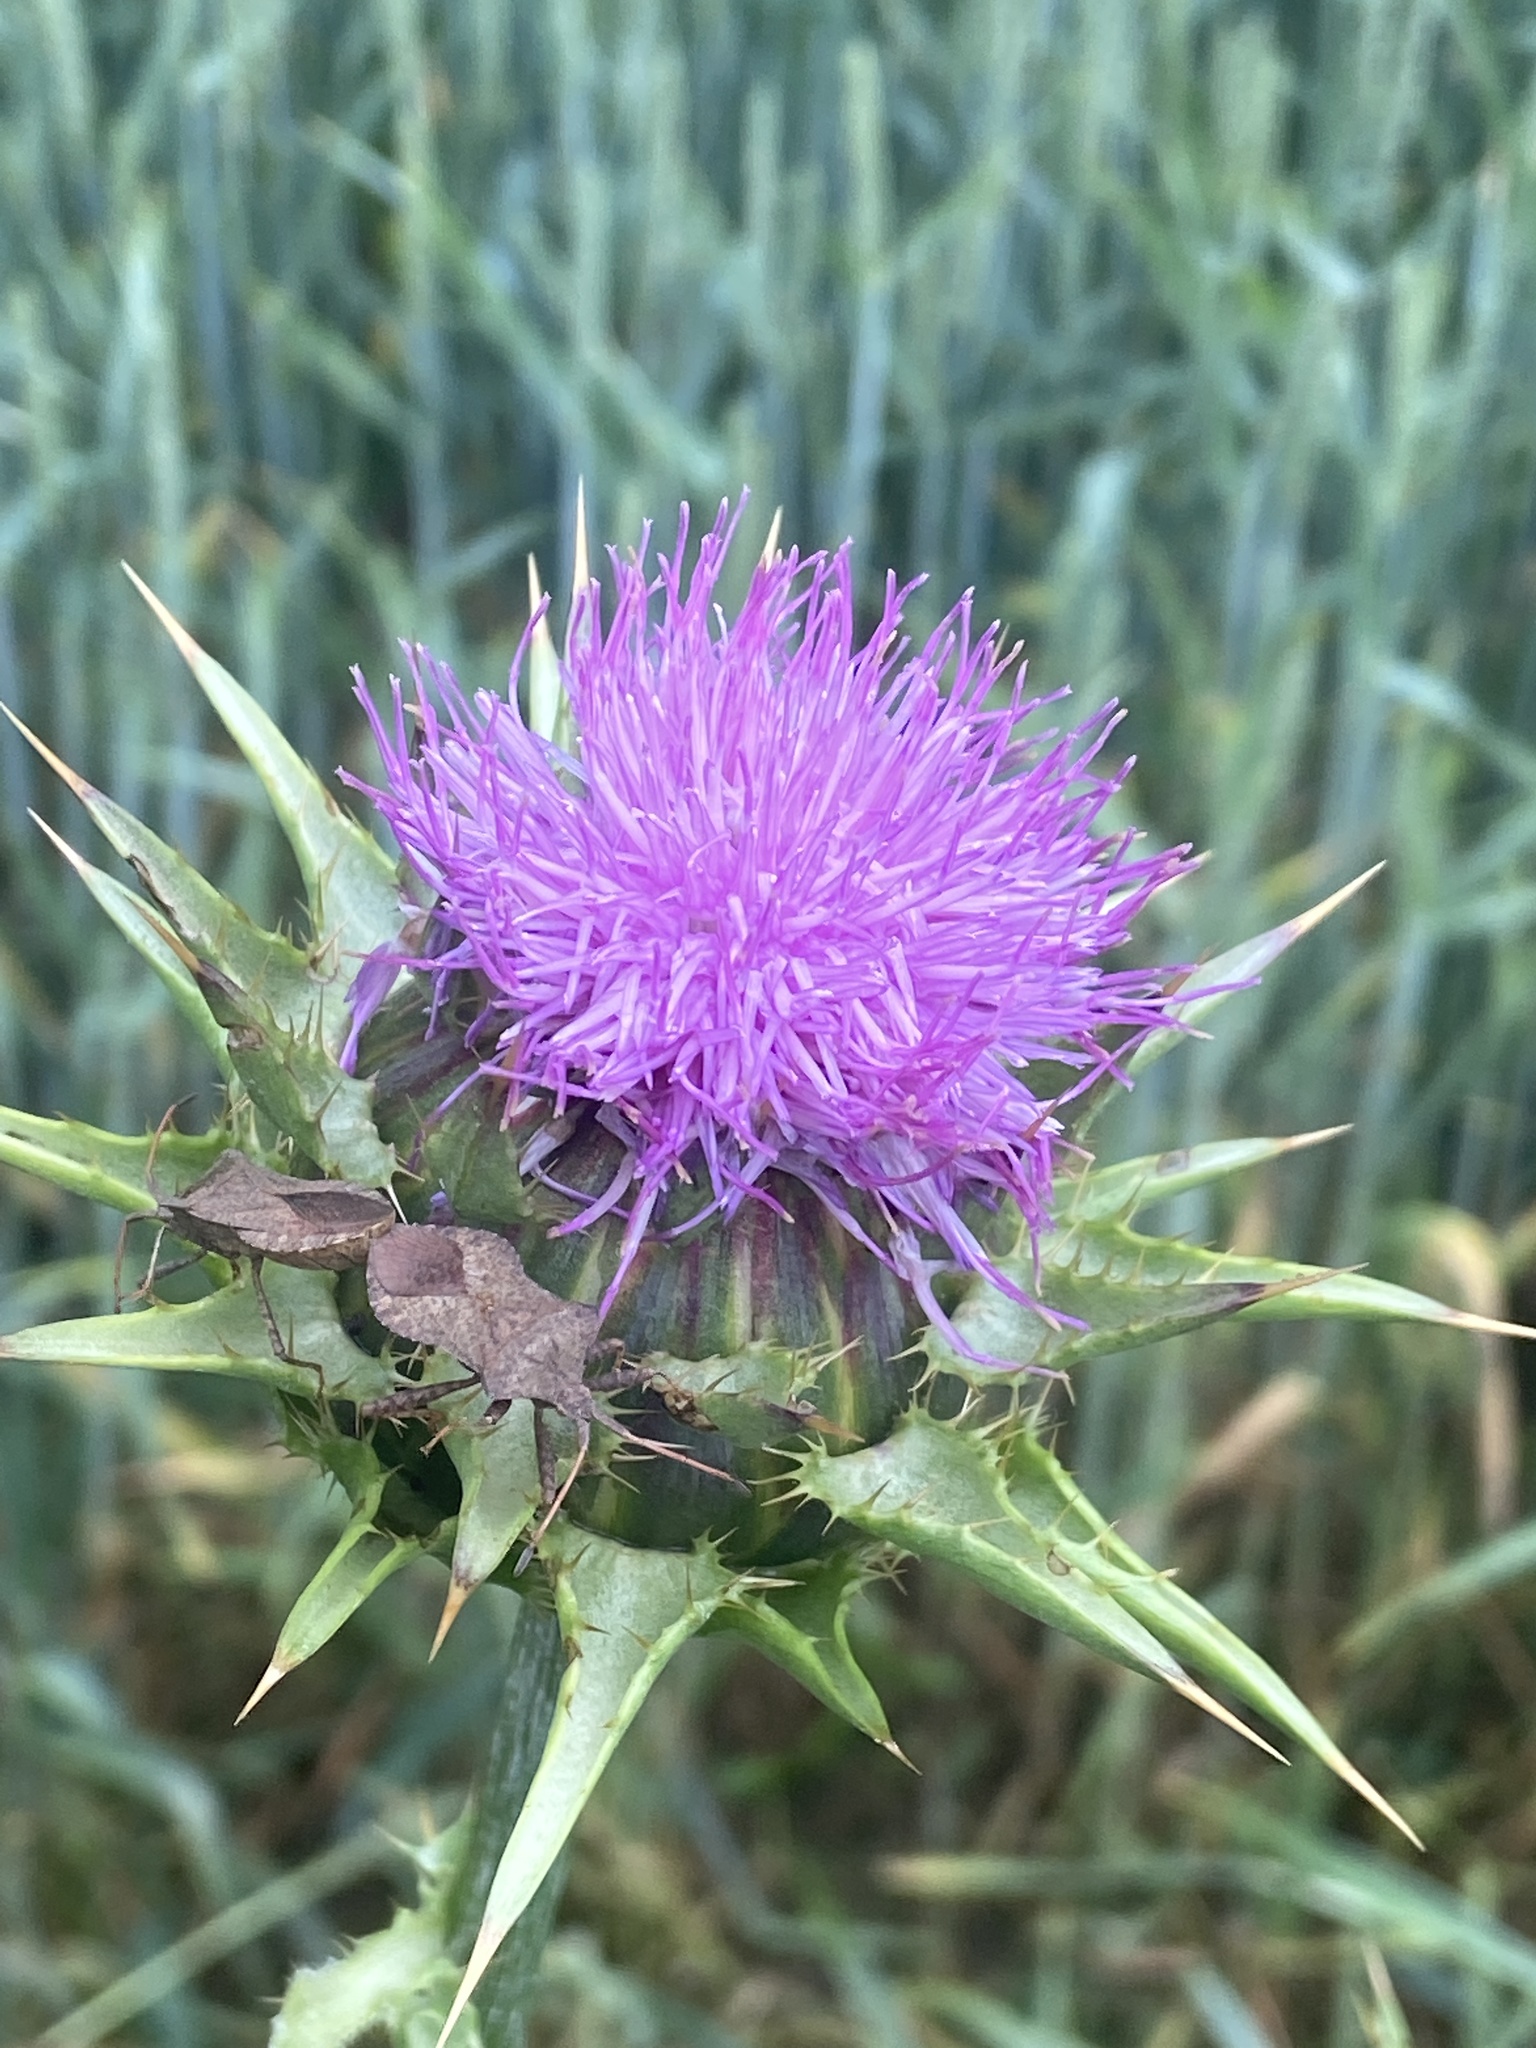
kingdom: Plantae
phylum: Tracheophyta
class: Magnoliopsida
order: Asterales
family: Asteraceae
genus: Silybum
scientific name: Silybum marianum
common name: Milk thistle
